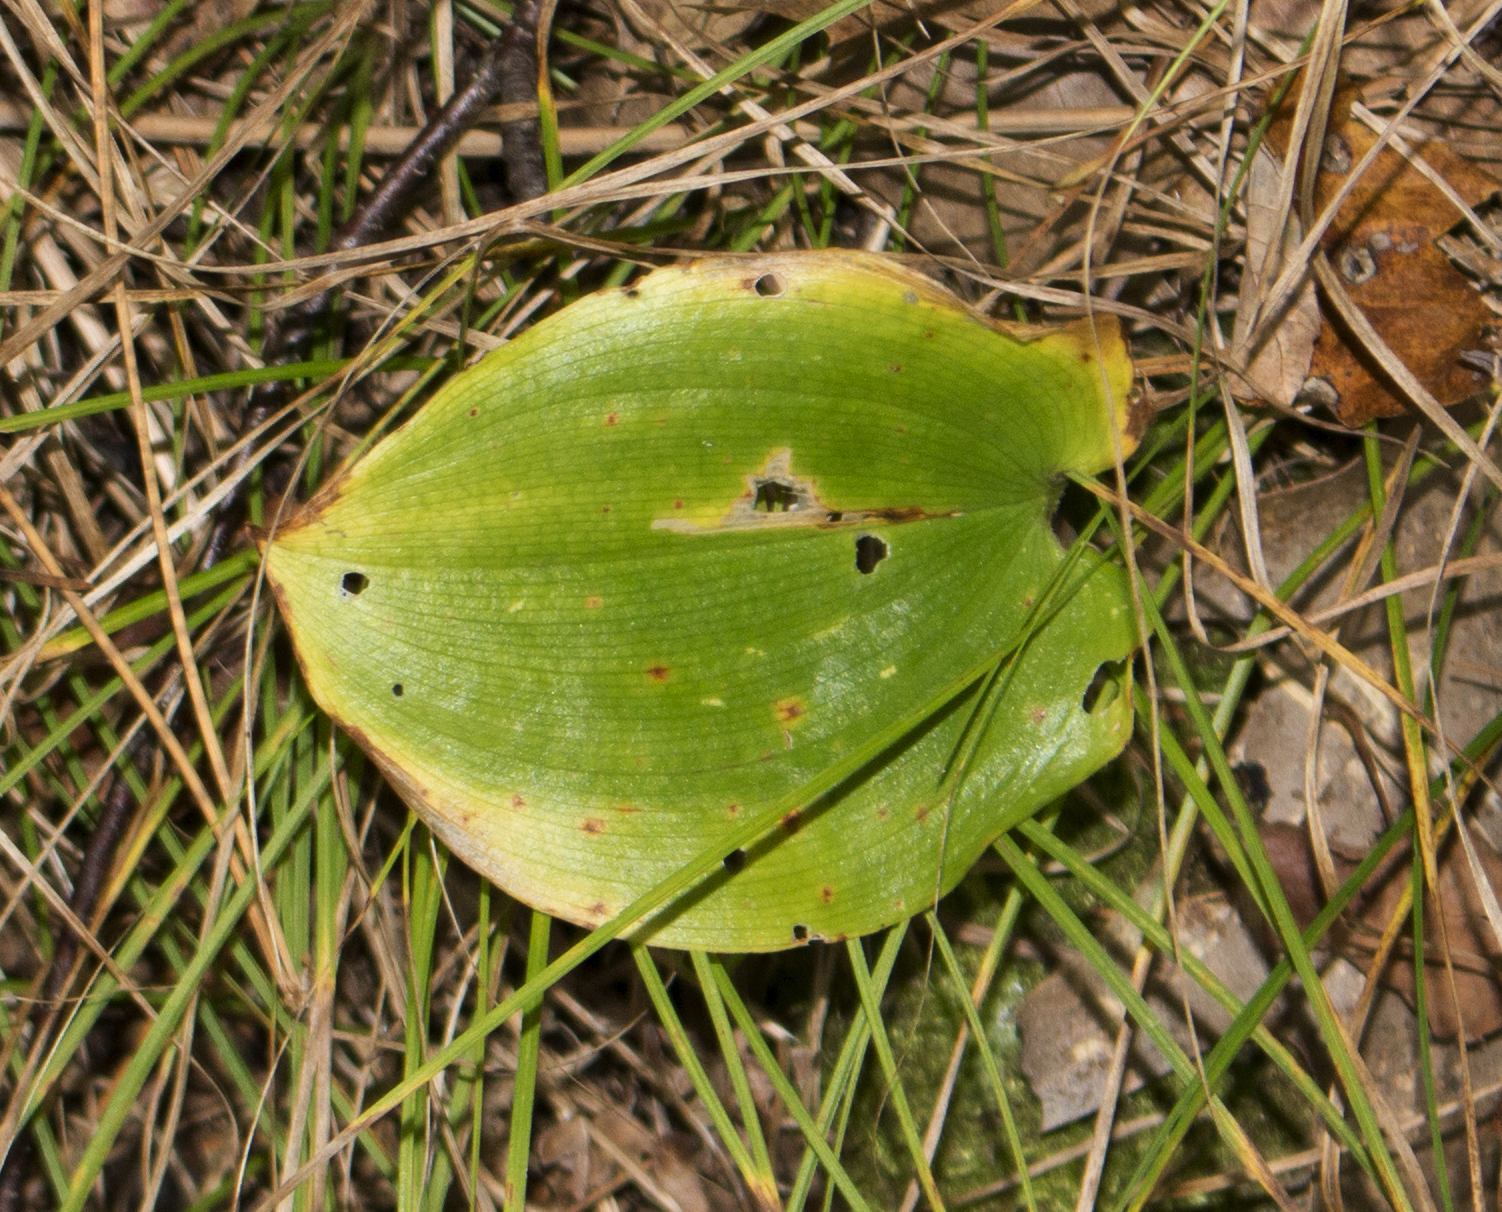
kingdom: Plantae
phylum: Tracheophyta
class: Liliopsida
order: Asparagales
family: Asparagaceae
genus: Maianthemum
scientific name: Maianthemum canadense
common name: False lily-of-the-valley
